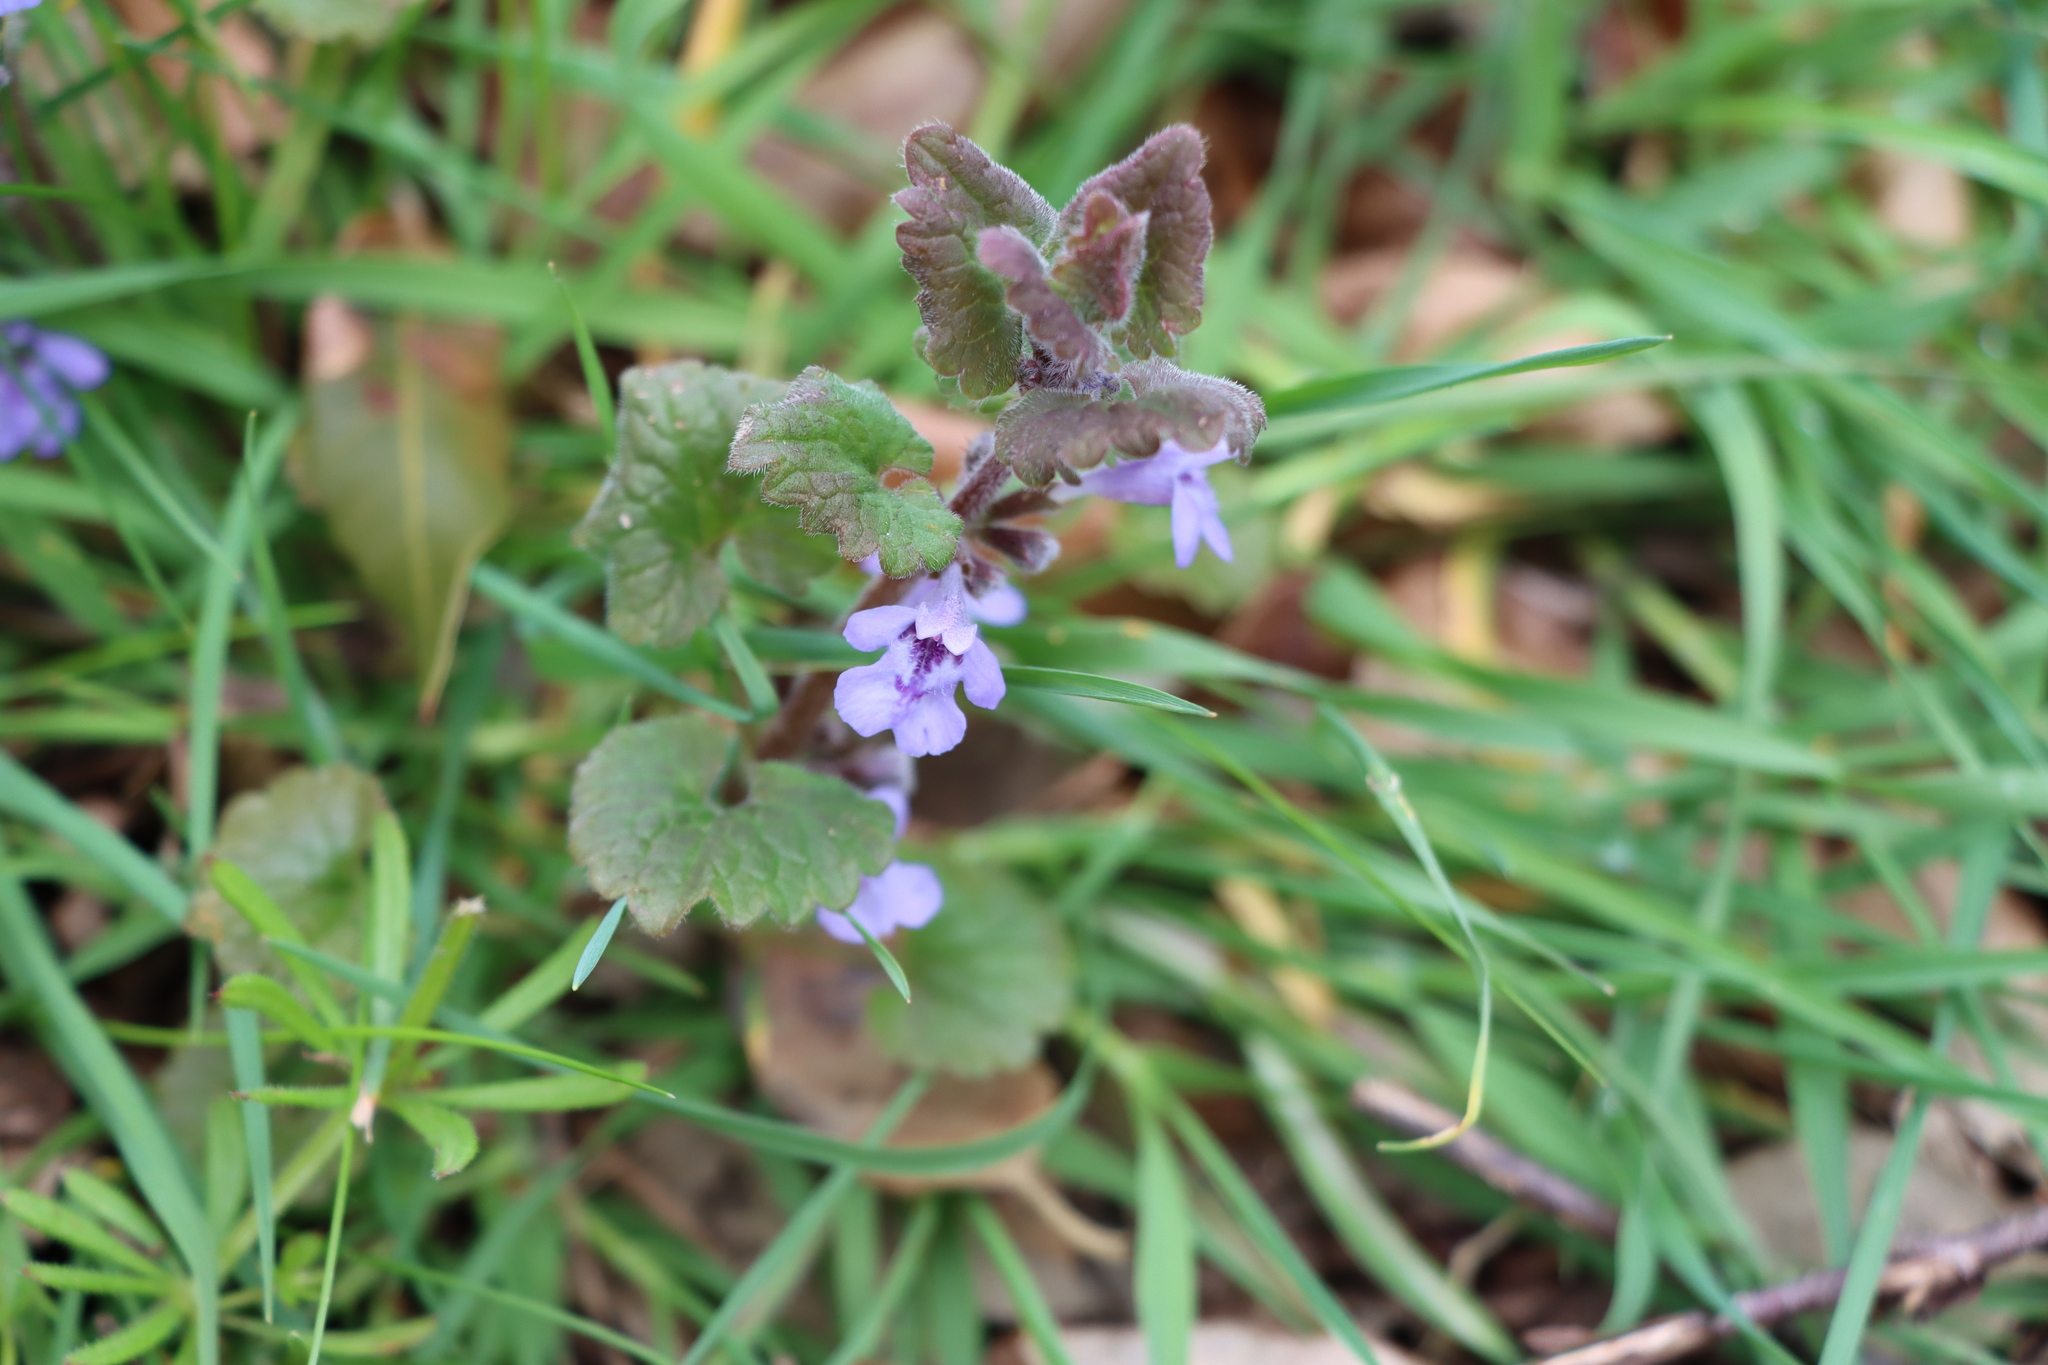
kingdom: Plantae
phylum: Tracheophyta
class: Magnoliopsida
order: Lamiales
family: Lamiaceae
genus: Glechoma
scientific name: Glechoma hederacea
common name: Ground ivy
